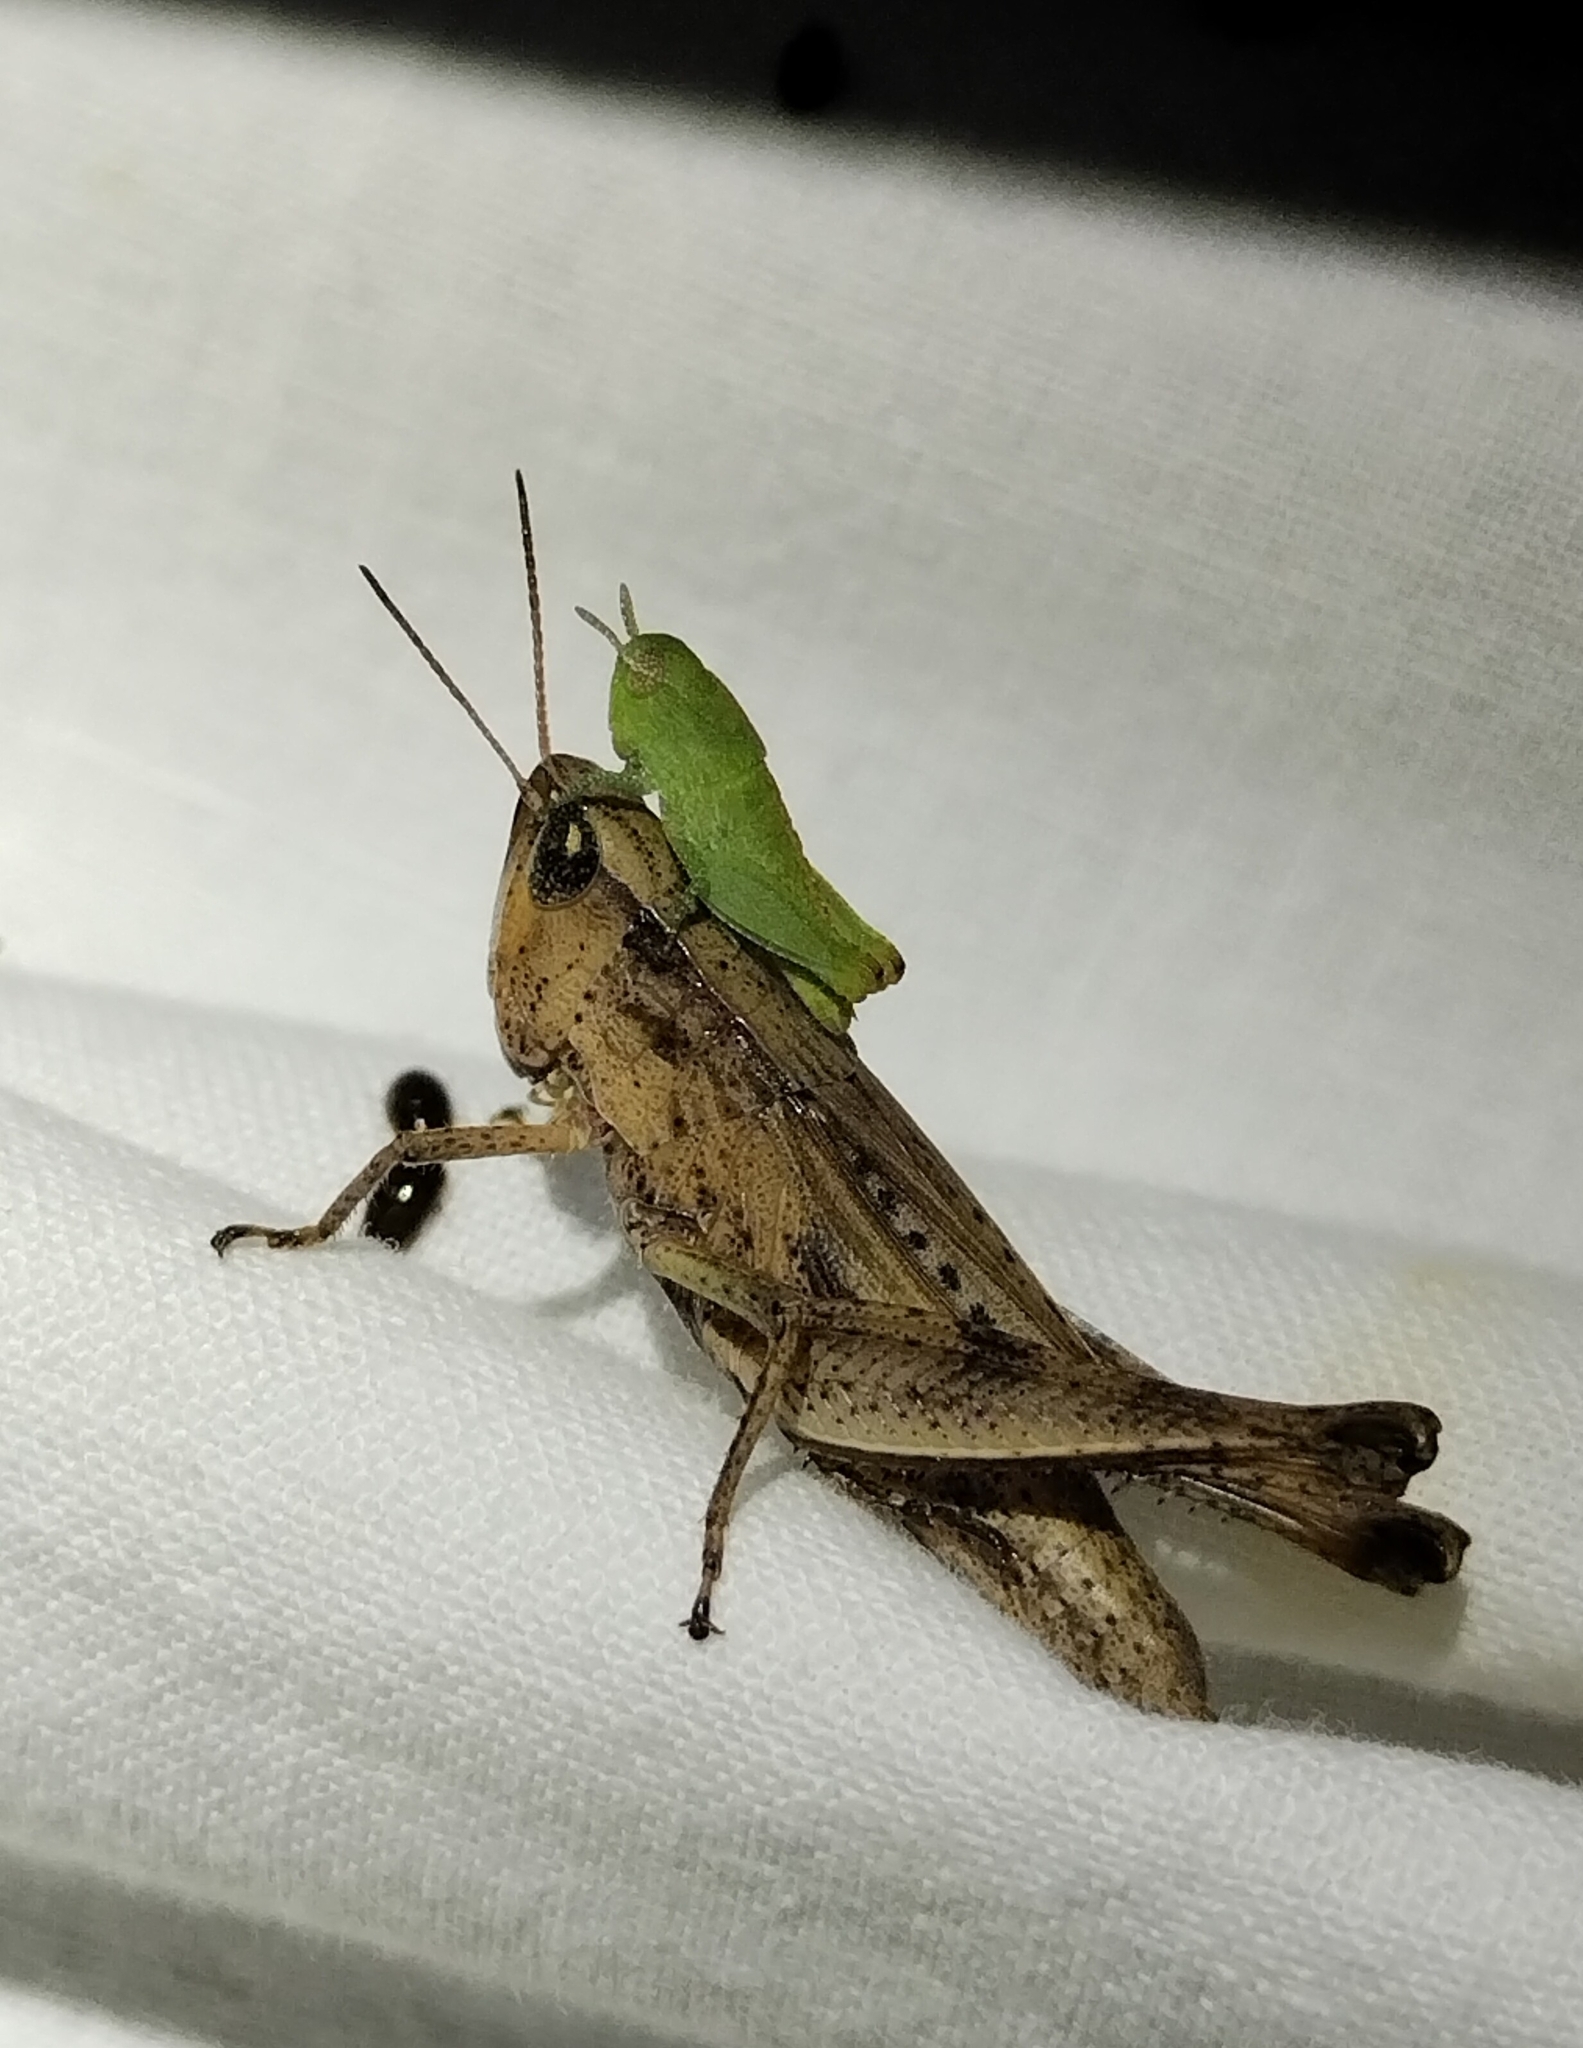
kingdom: Animalia
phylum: Arthropoda
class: Insecta
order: Orthoptera
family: Acrididae
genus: Dichromorpha
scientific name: Dichromorpha viridis
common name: Short-winged green grasshopper
